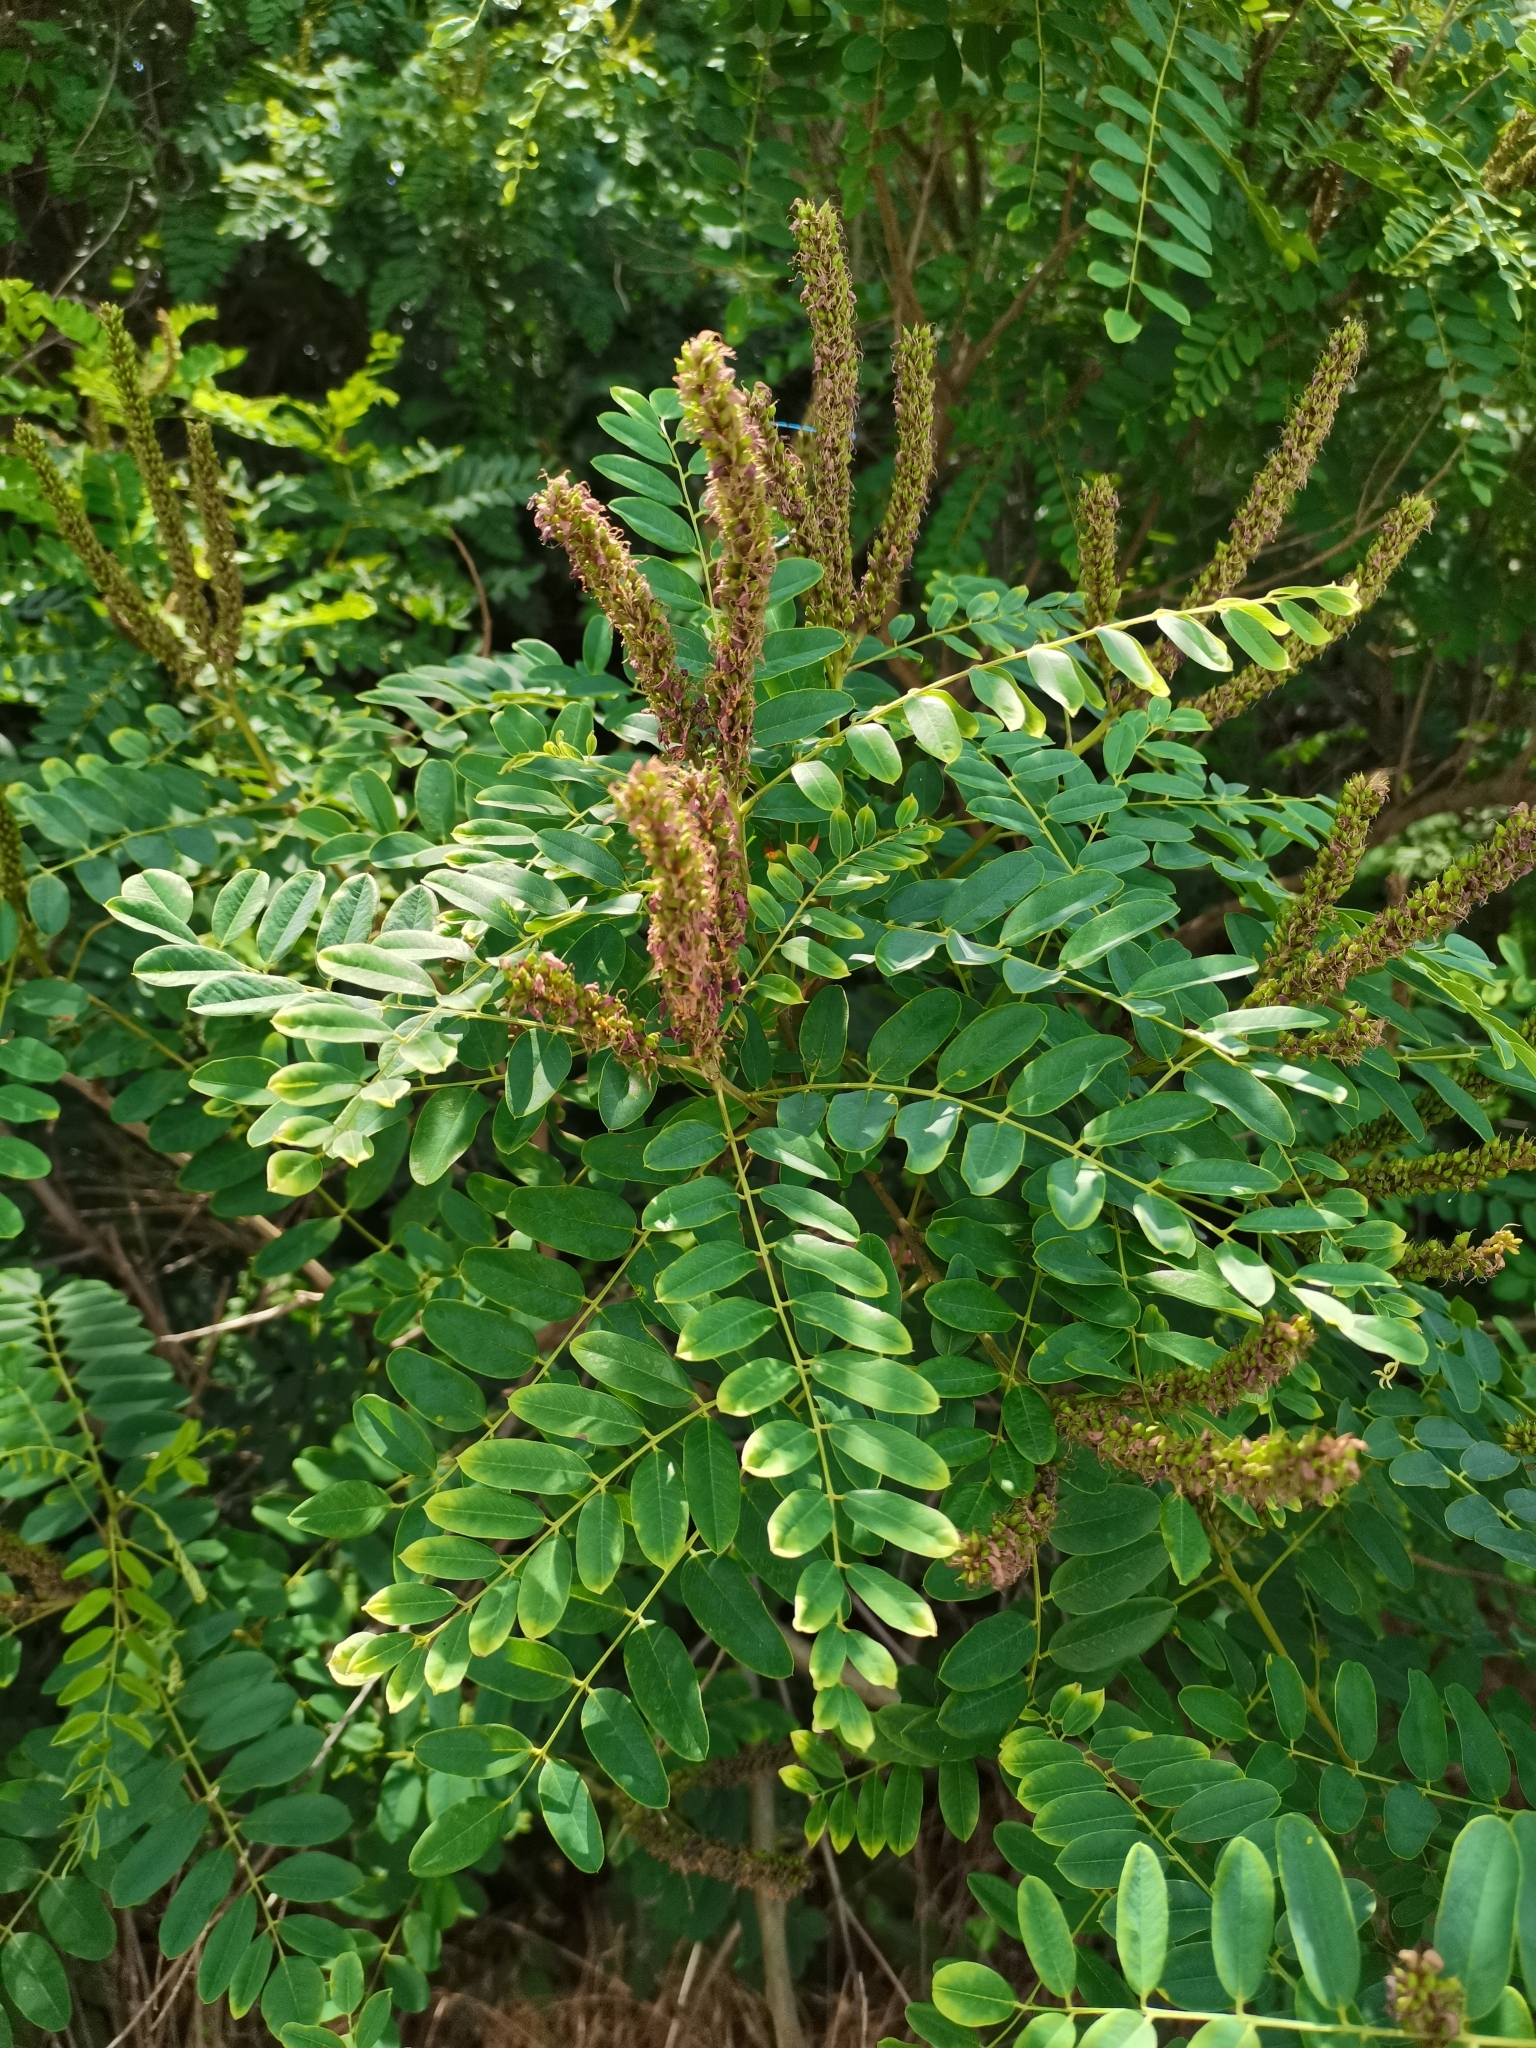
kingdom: Plantae
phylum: Tracheophyta
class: Magnoliopsida
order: Fabales
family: Fabaceae
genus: Amorpha
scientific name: Amorpha fruticosa
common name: False indigo
